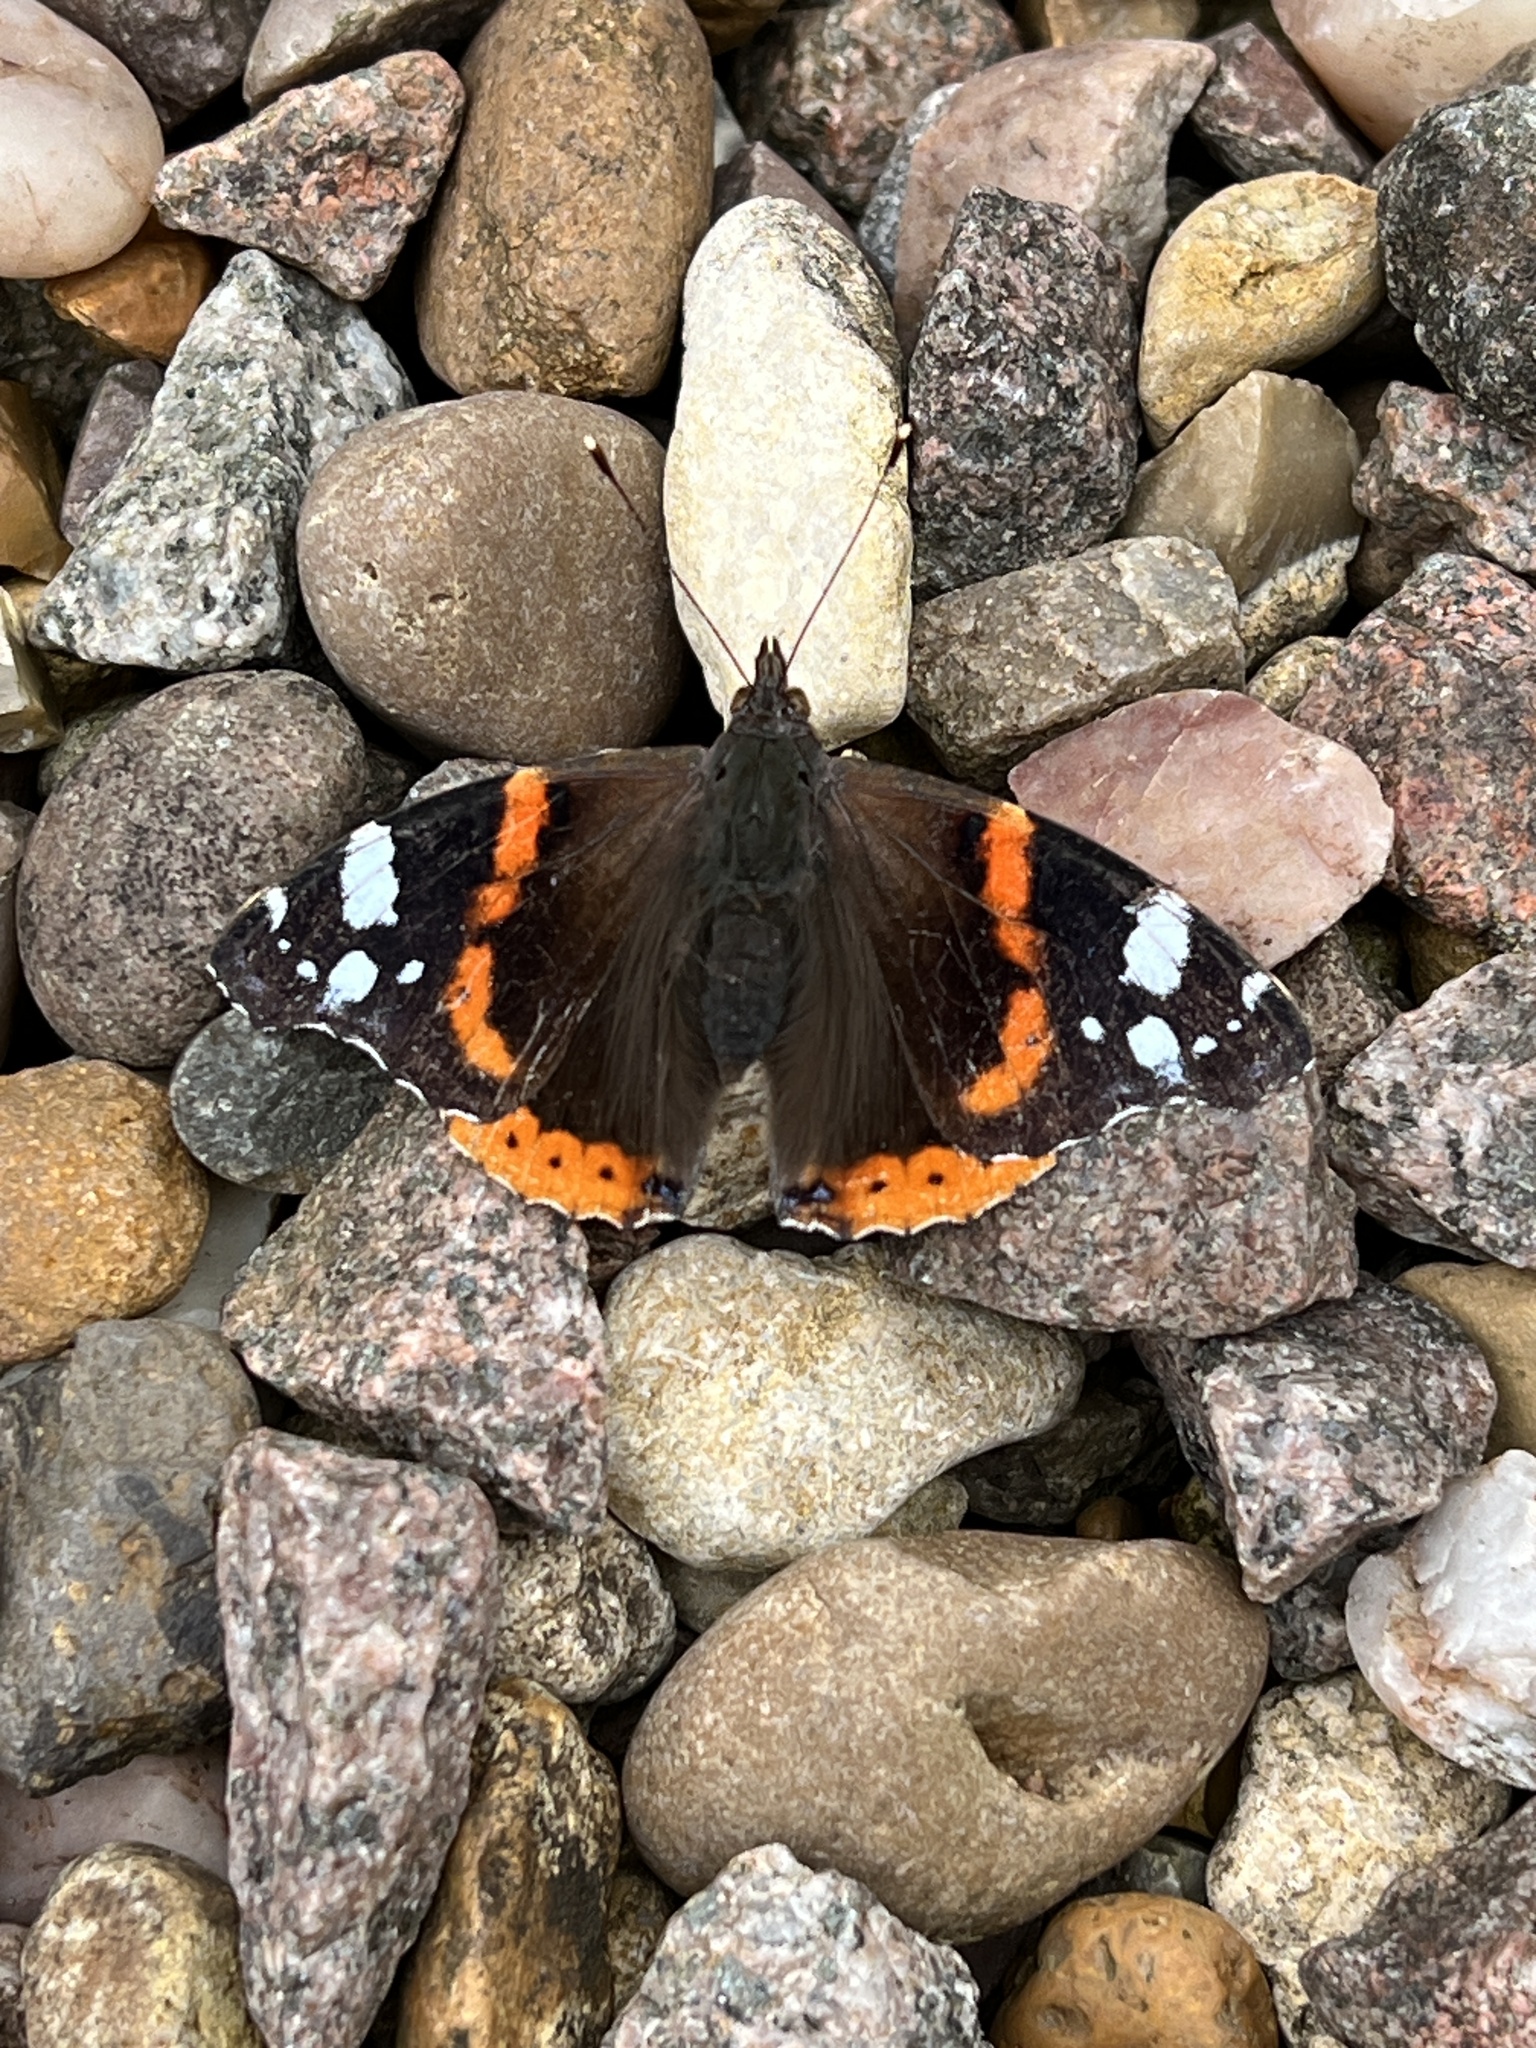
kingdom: Animalia
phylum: Arthropoda
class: Insecta
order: Lepidoptera
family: Nymphalidae
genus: Vanessa
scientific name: Vanessa atalanta
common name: Red admiral
